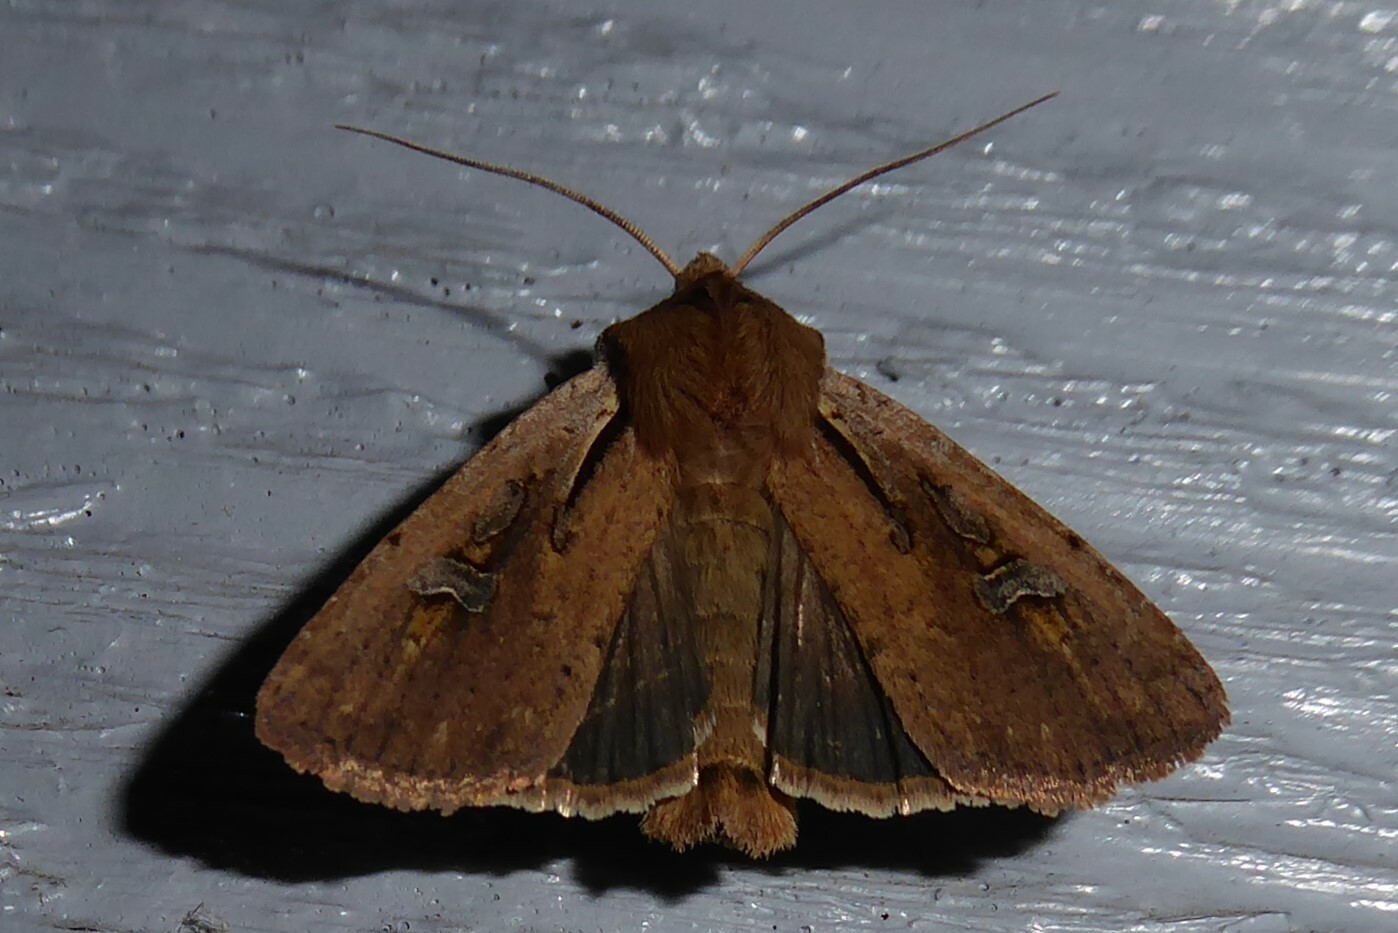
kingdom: Animalia
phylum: Arthropoda
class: Insecta
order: Lepidoptera
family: Noctuidae
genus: Ichneutica
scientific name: Ichneutica atristriga
